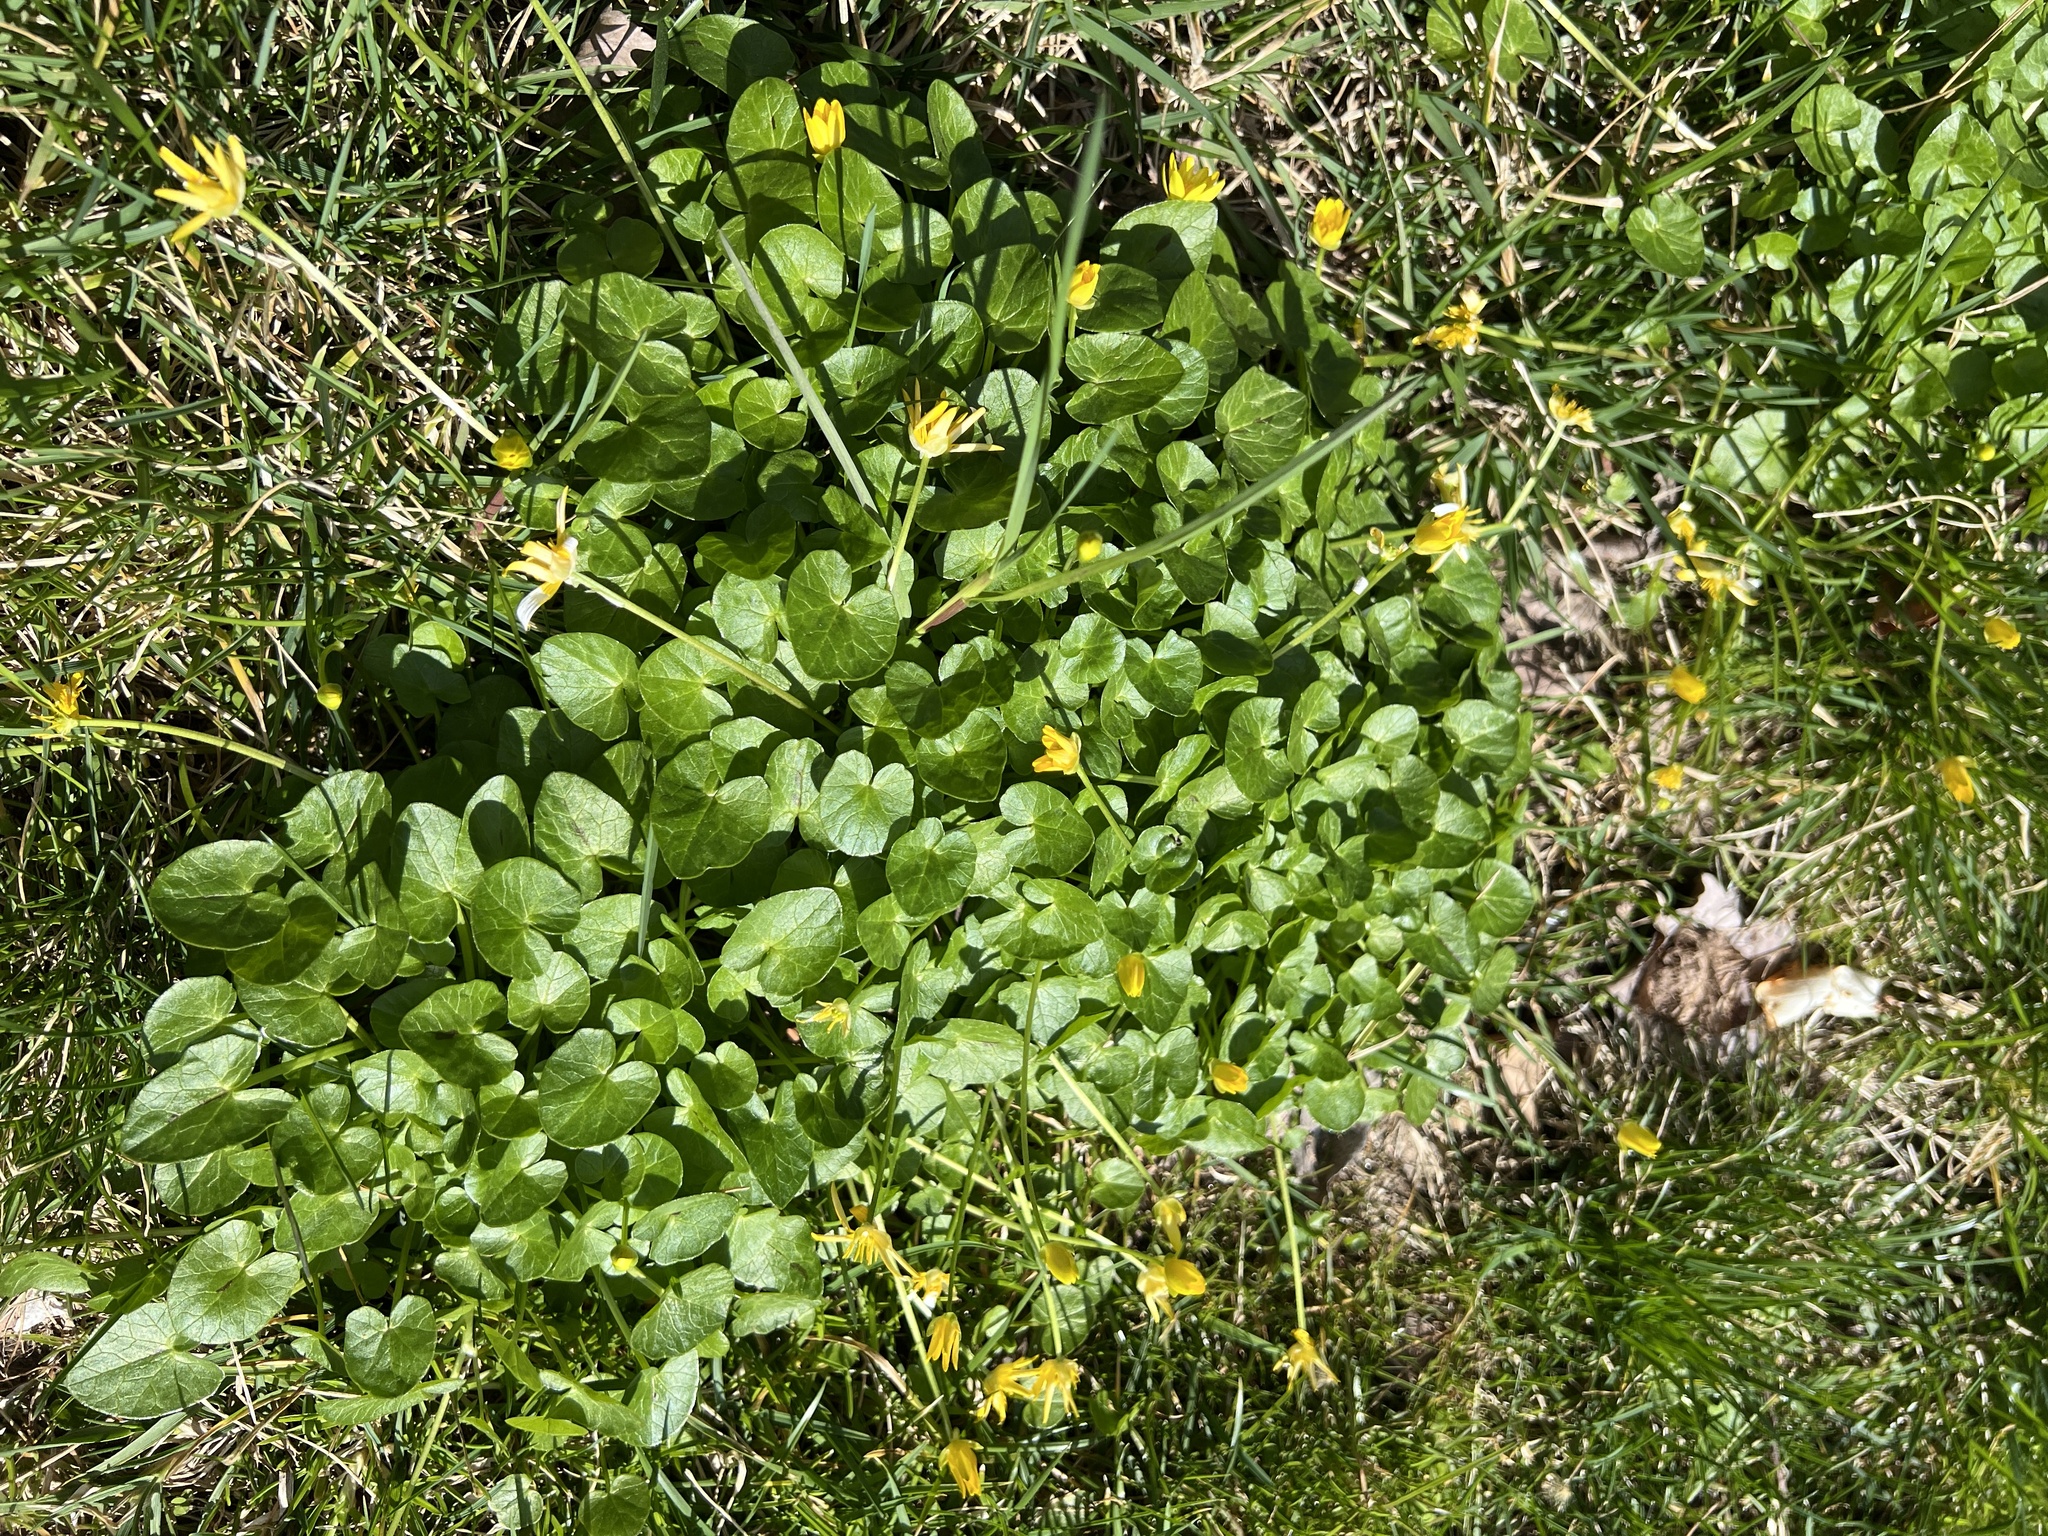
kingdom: Plantae
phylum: Tracheophyta
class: Magnoliopsida
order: Ranunculales
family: Ranunculaceae
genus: Ficaria
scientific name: Ficaria verna
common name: Lesser celandine
